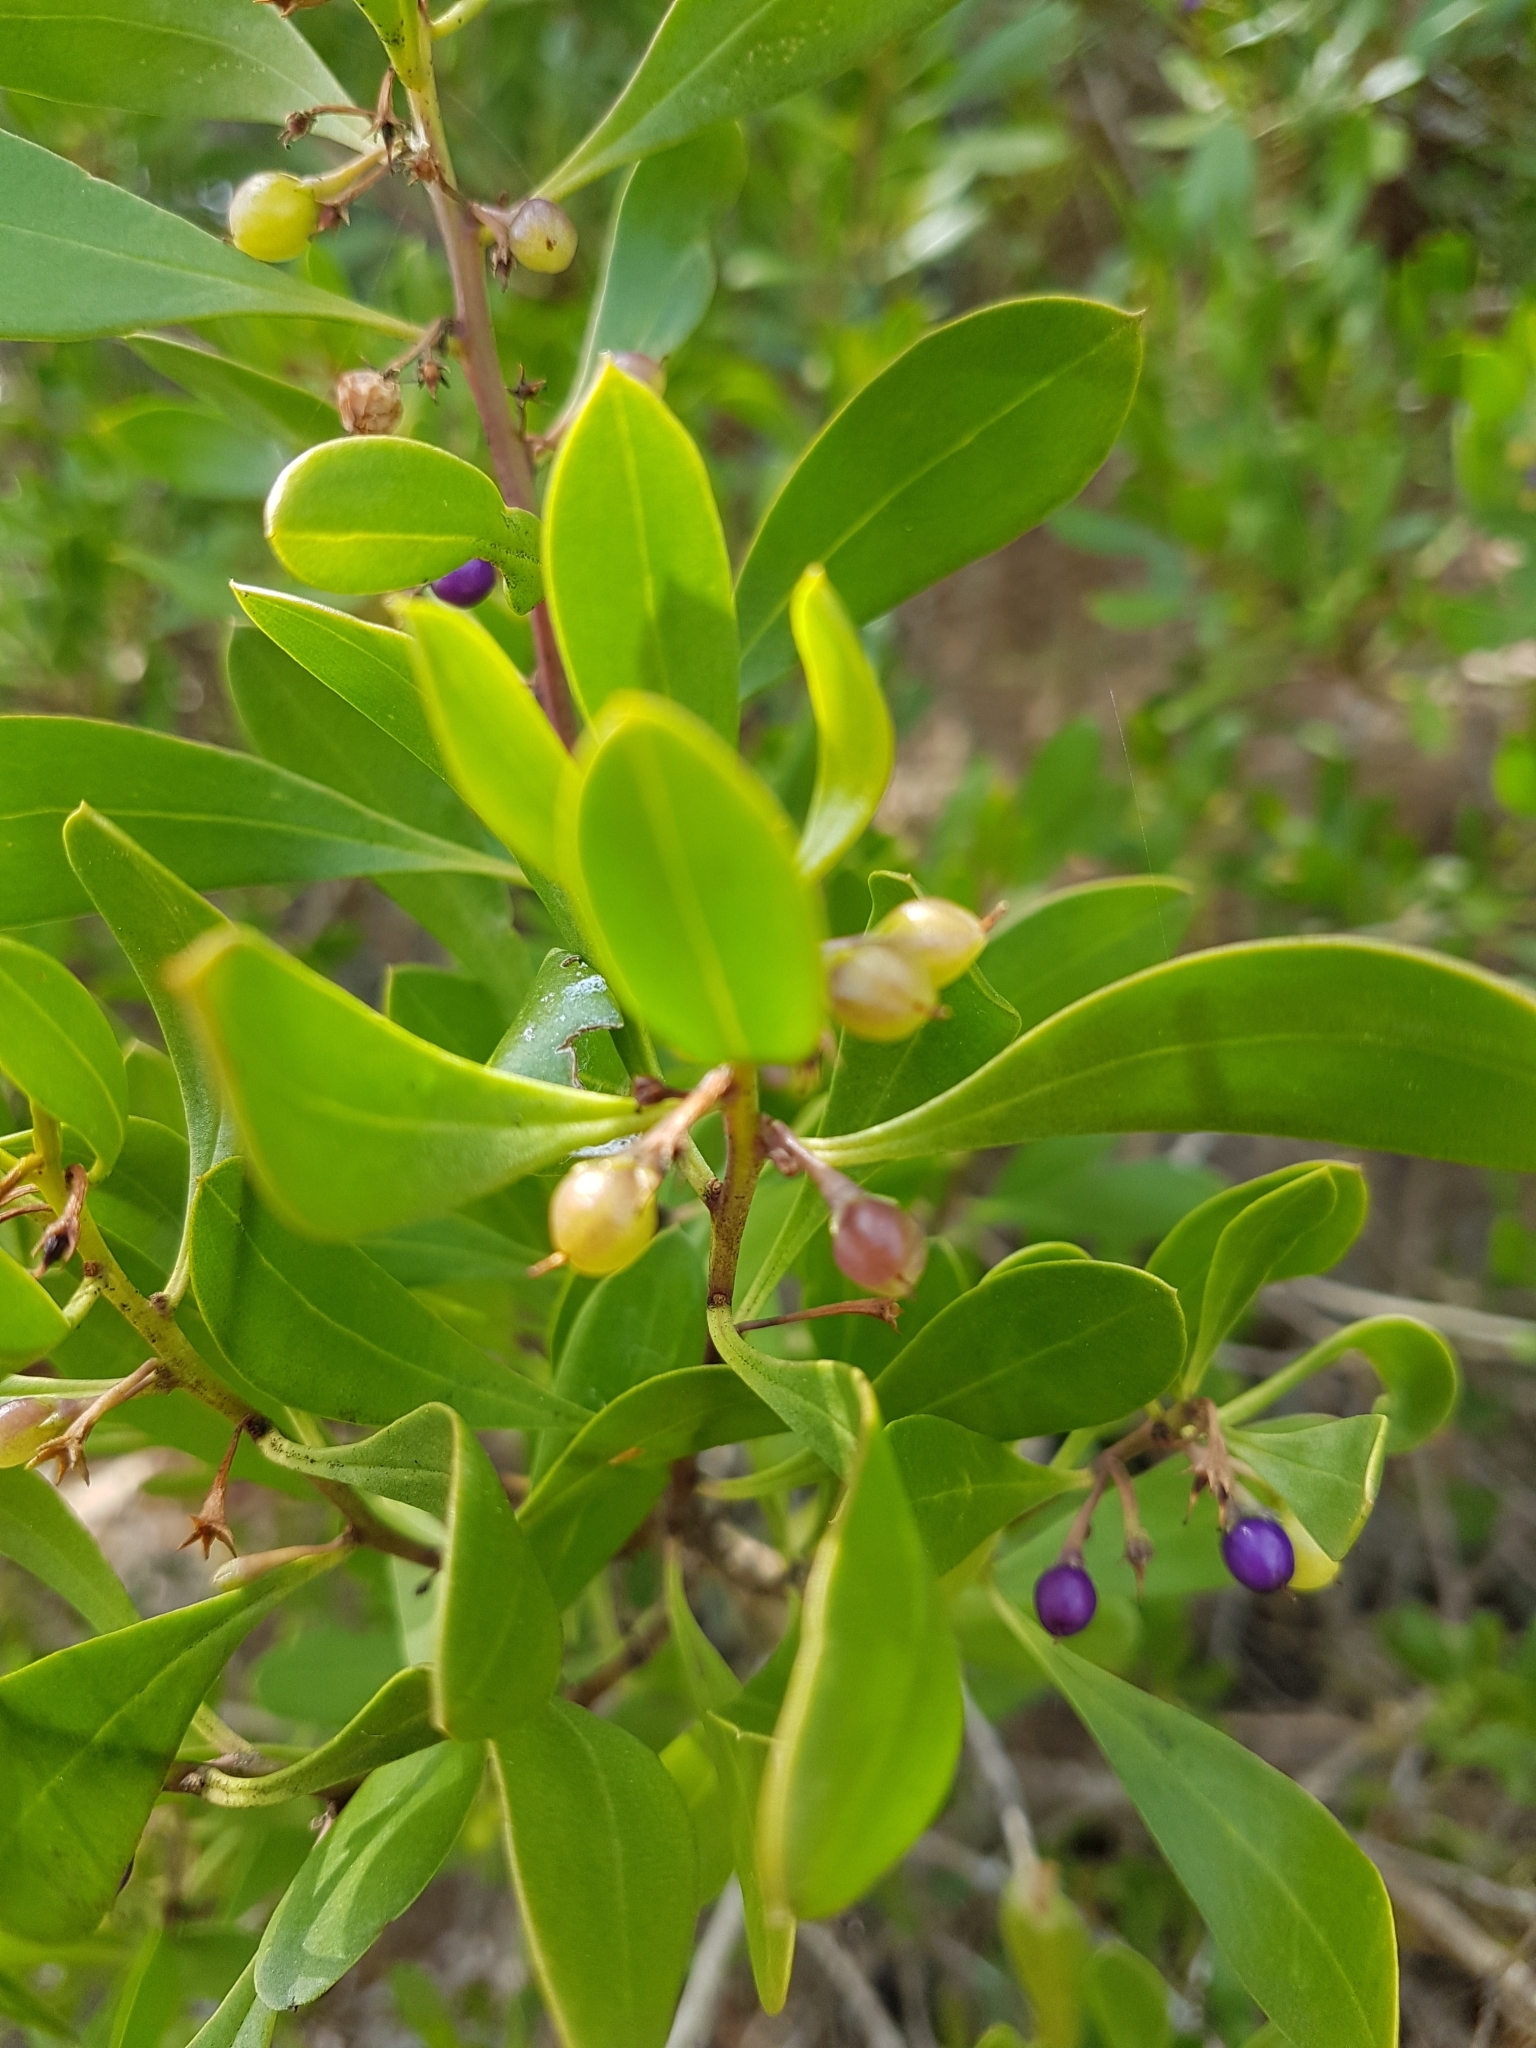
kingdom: Plantae
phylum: Tracheophyta
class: Magnoliopsida
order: Lamiales
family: Scrophulariaceae
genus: Myoporum
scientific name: Myoporum boninense
